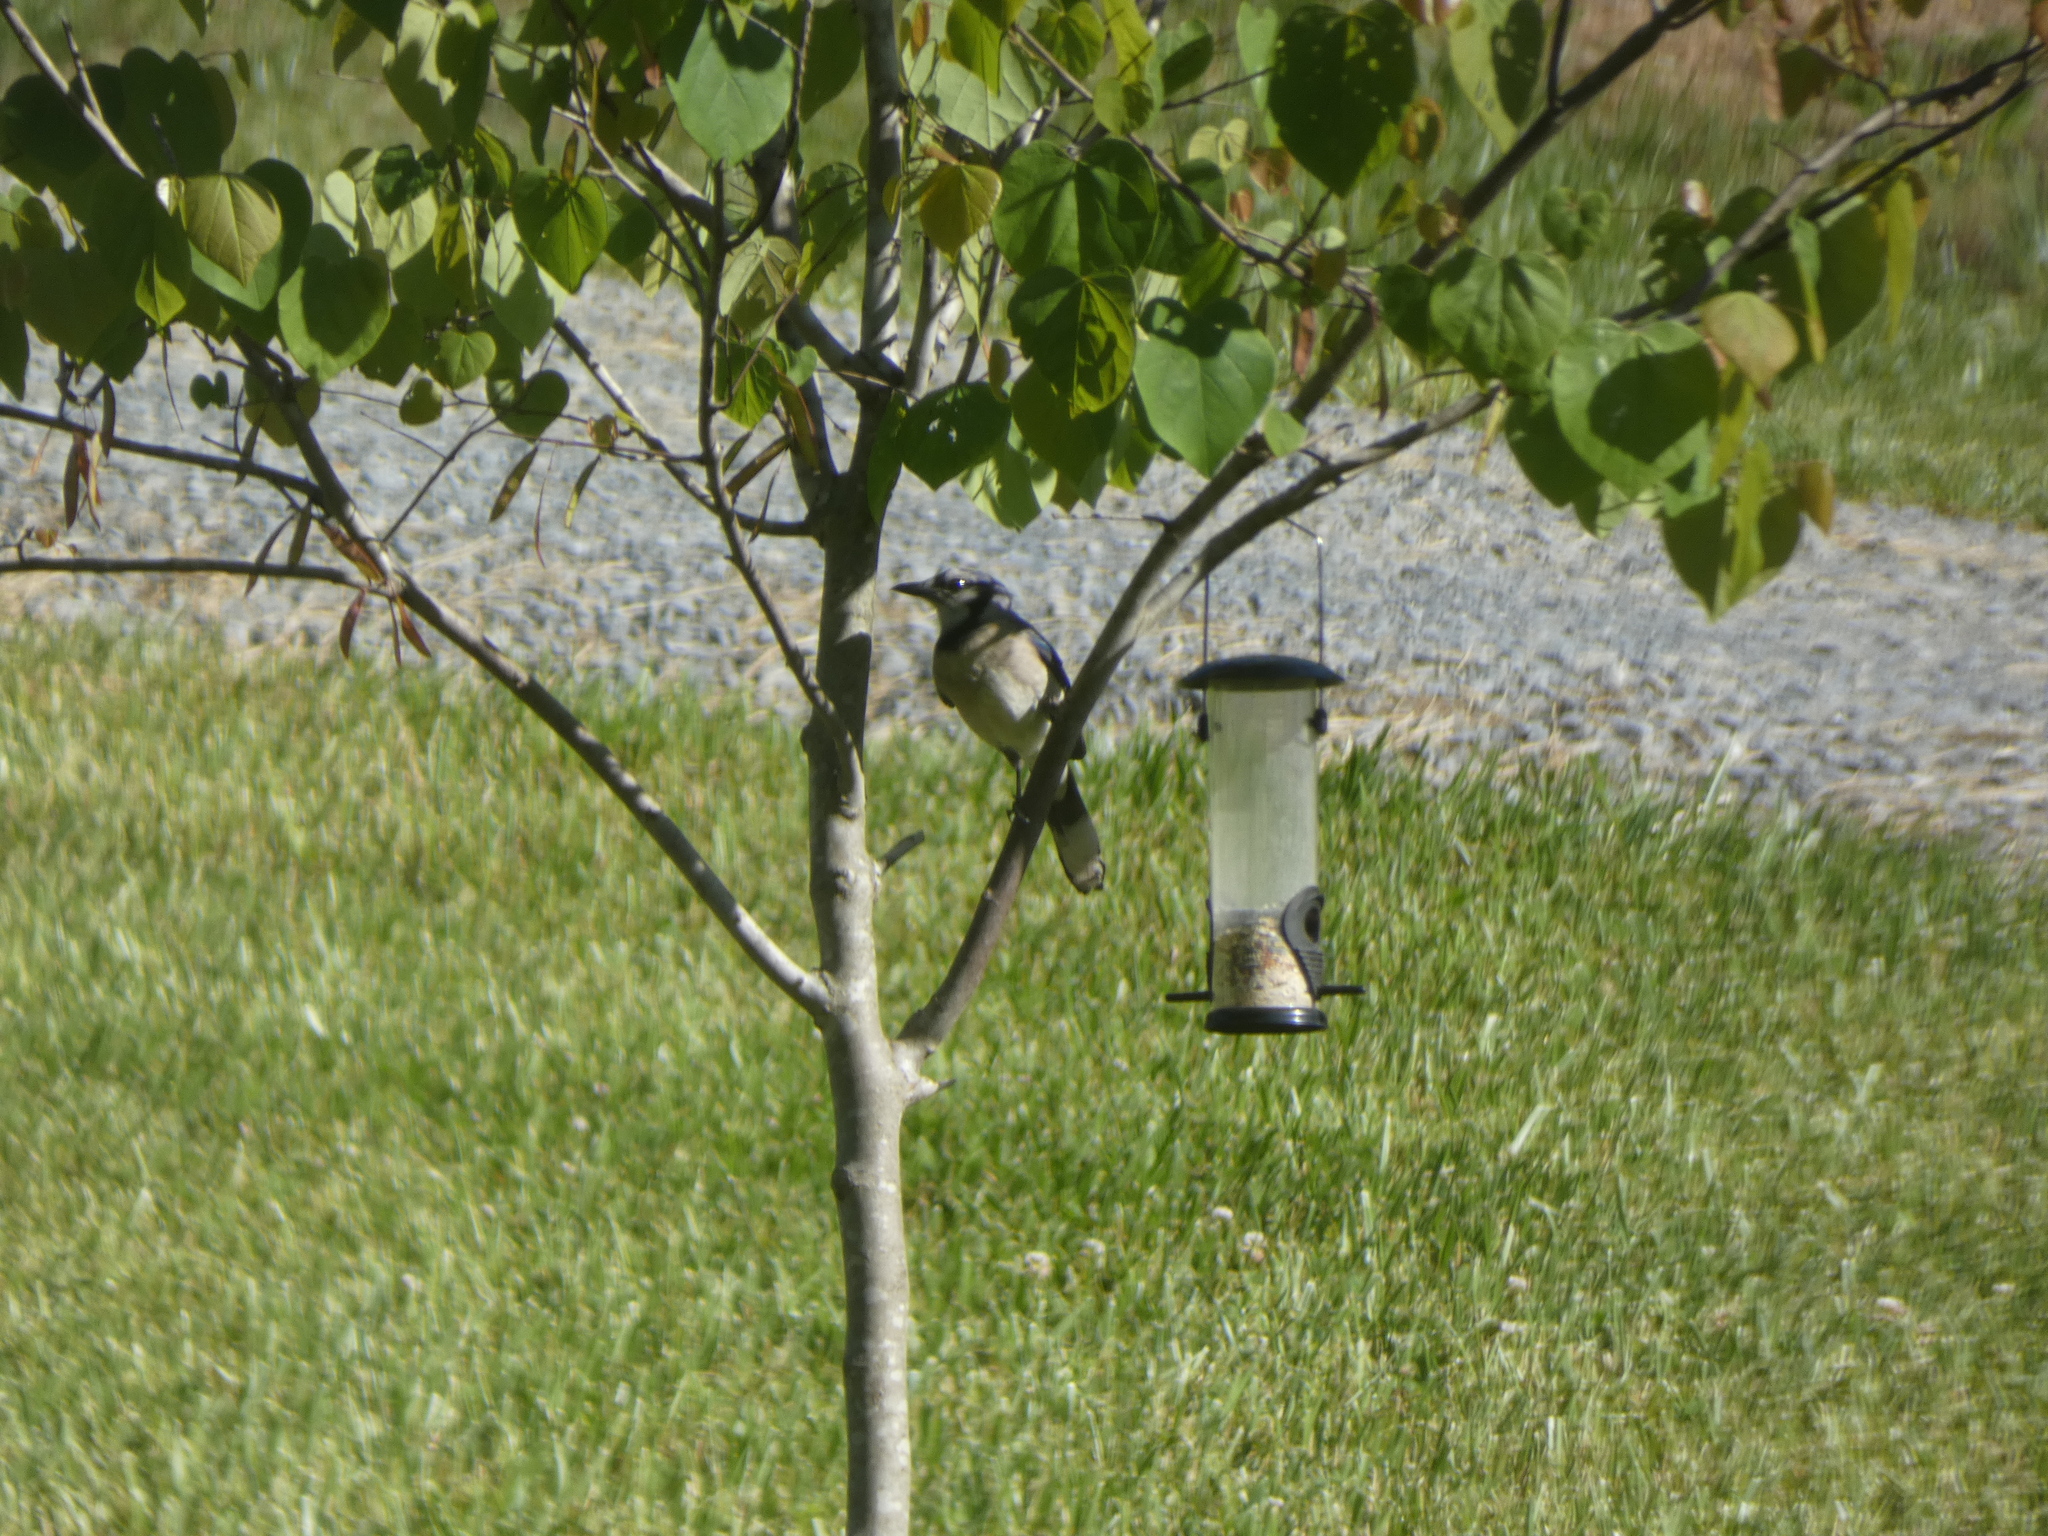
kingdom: Animalia
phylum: Chordata
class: Aves
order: Passeriformes
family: Corvidae
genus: Cyanocitta
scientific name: Cyanocitta cristata
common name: Blue jay
